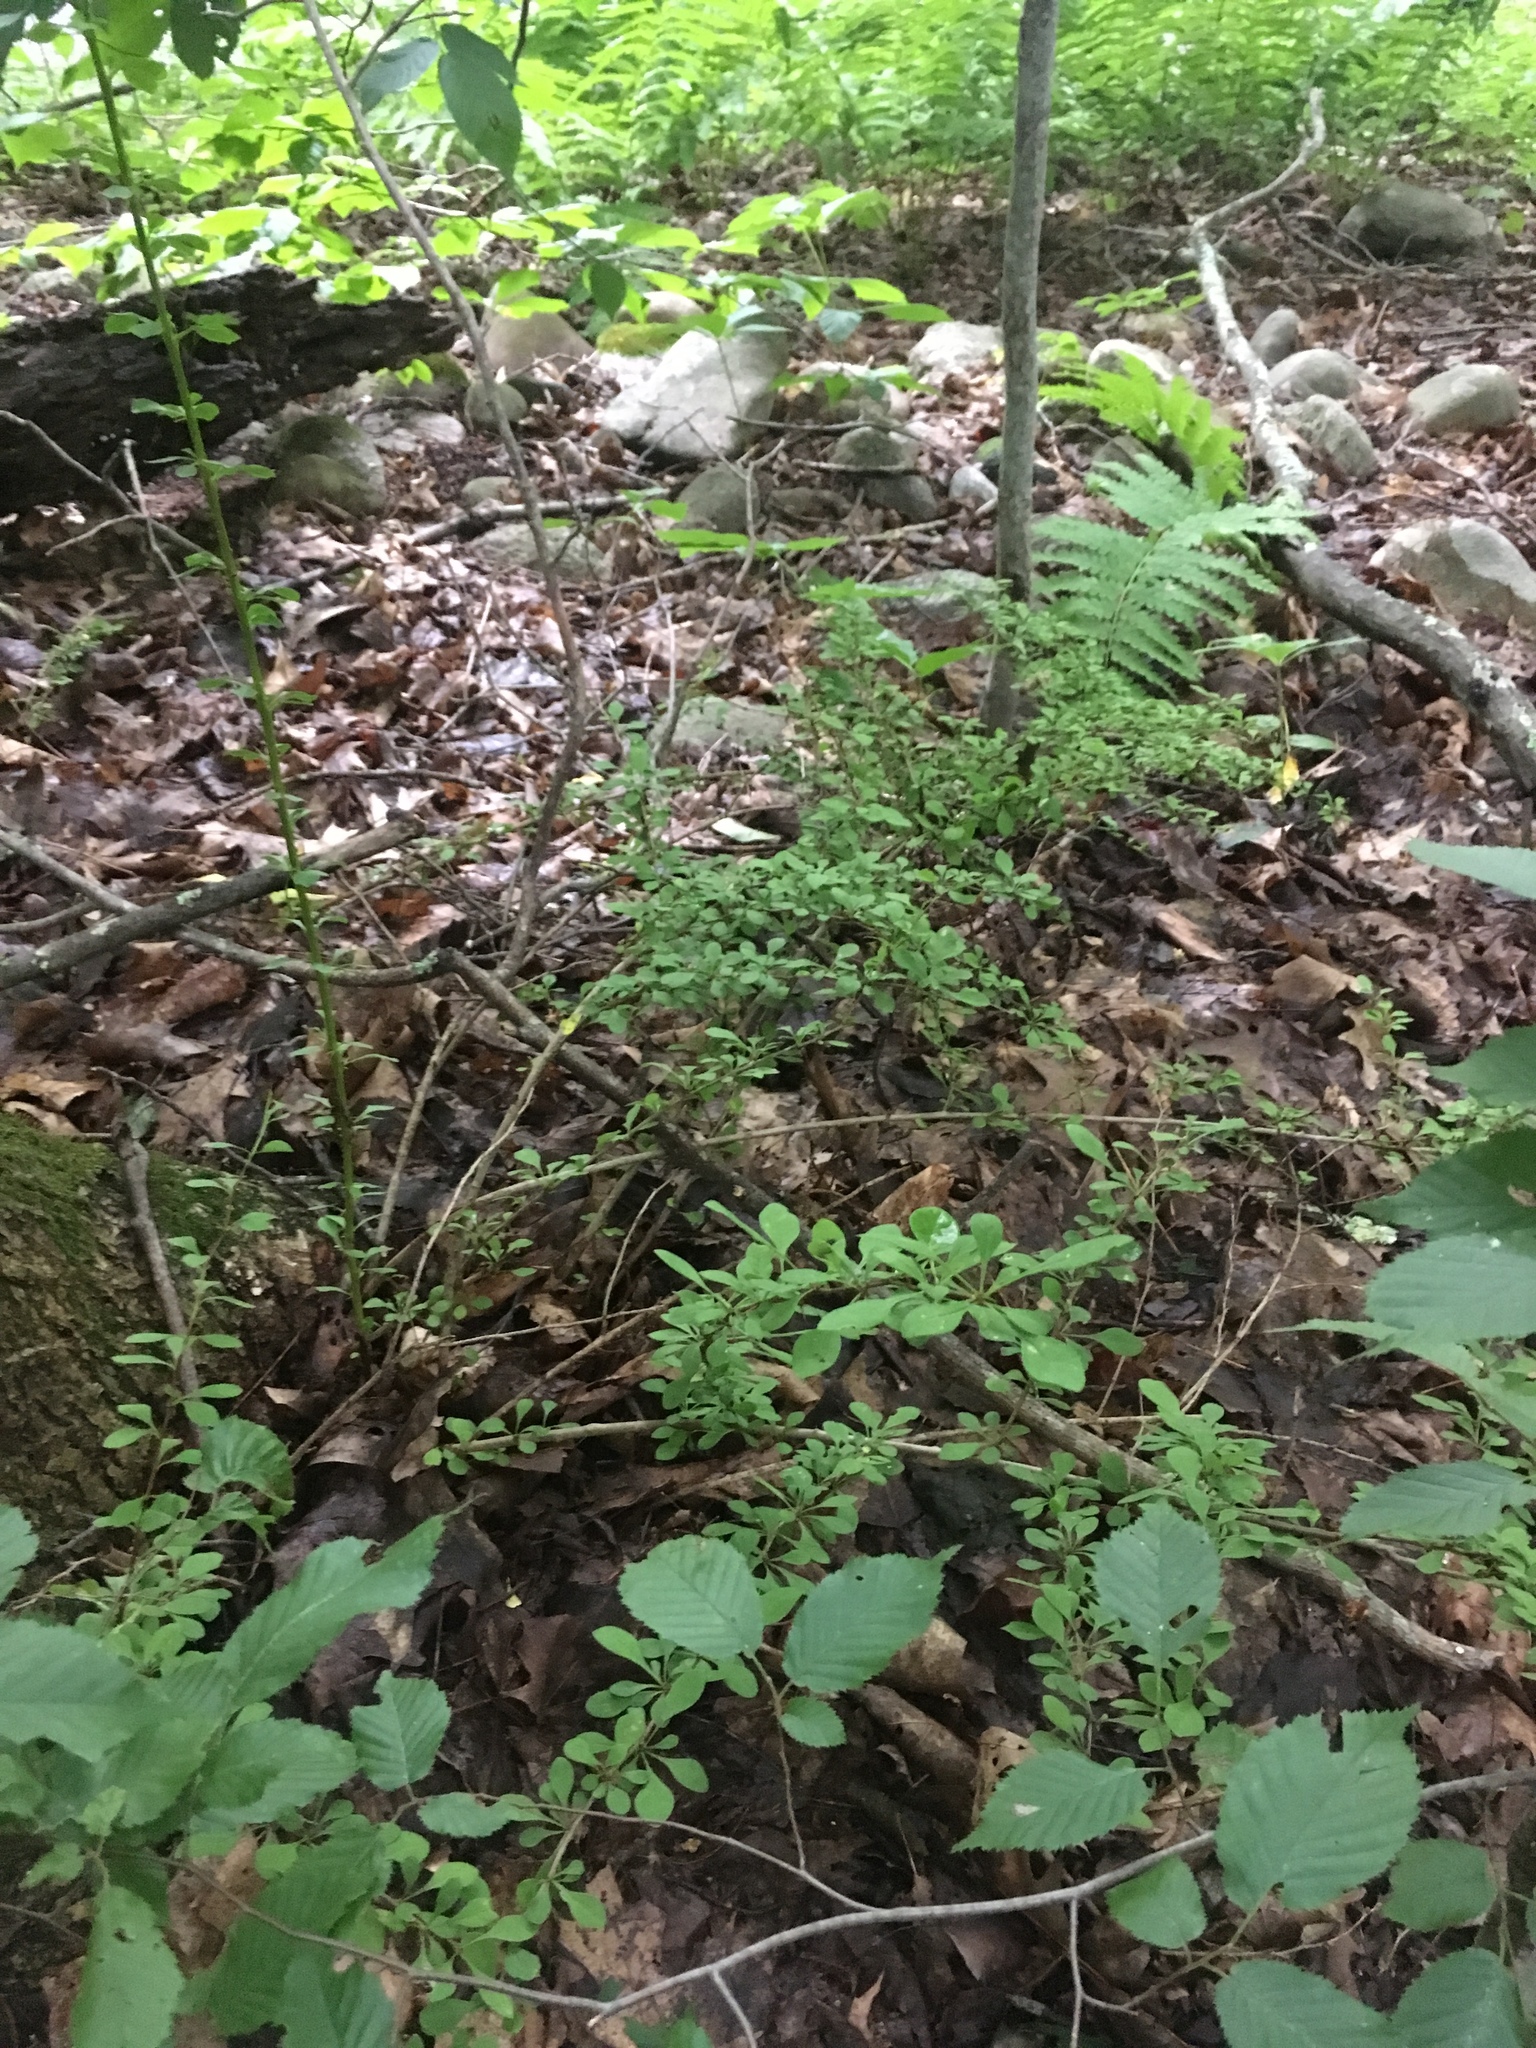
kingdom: Plantae
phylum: Tracheophyta
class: Magnoliopsida
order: Ranunculales
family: Berberidaceae
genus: Berberis
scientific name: Berberis thunbergii
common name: Japanese barberry
